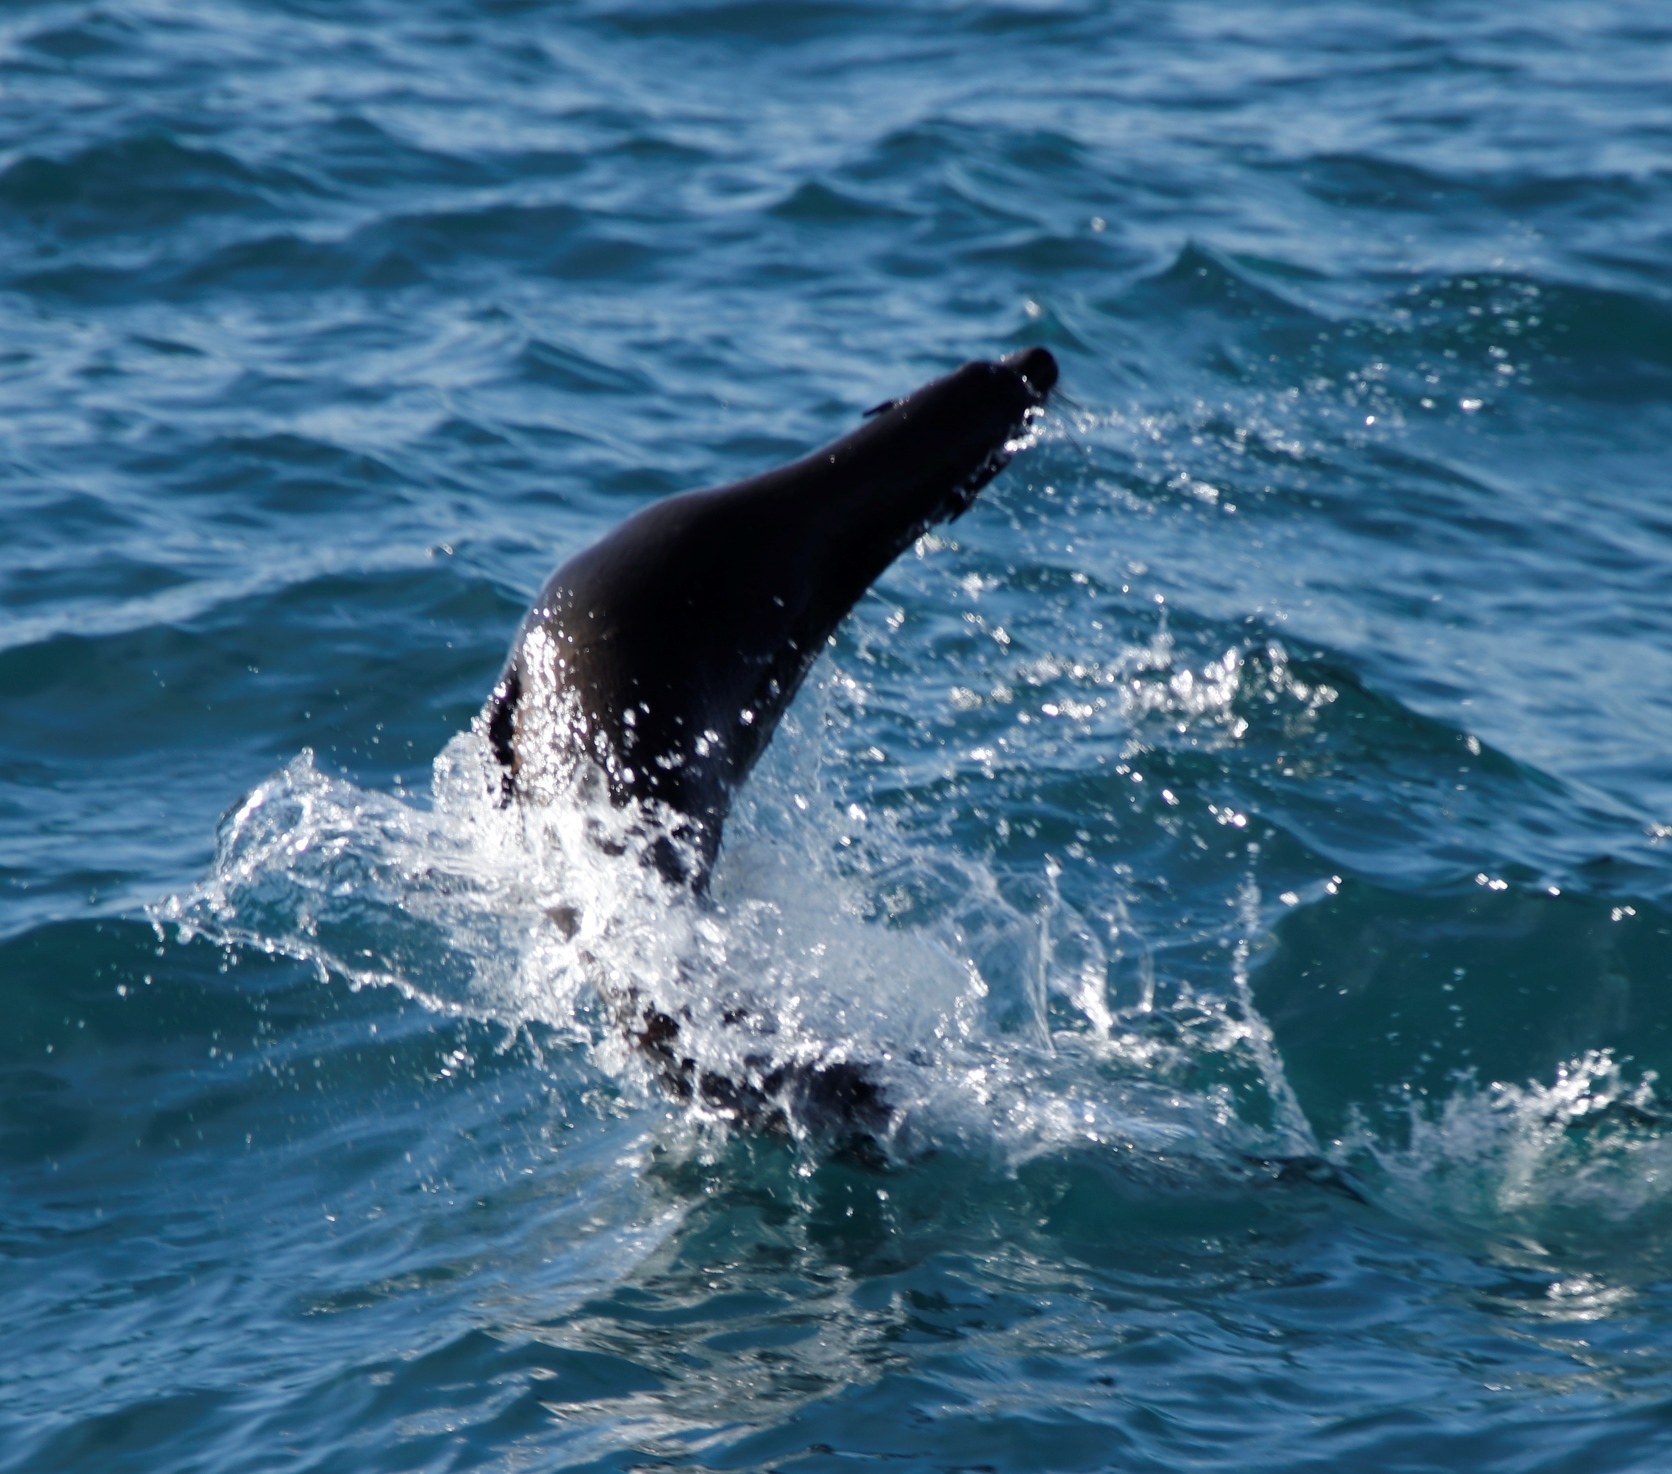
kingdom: Animalia
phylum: Chordata
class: Mammalia
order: Carnivora
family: Otariidae
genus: Arctocephalus
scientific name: Arctocephalus pusillus
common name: Brown fur seal
